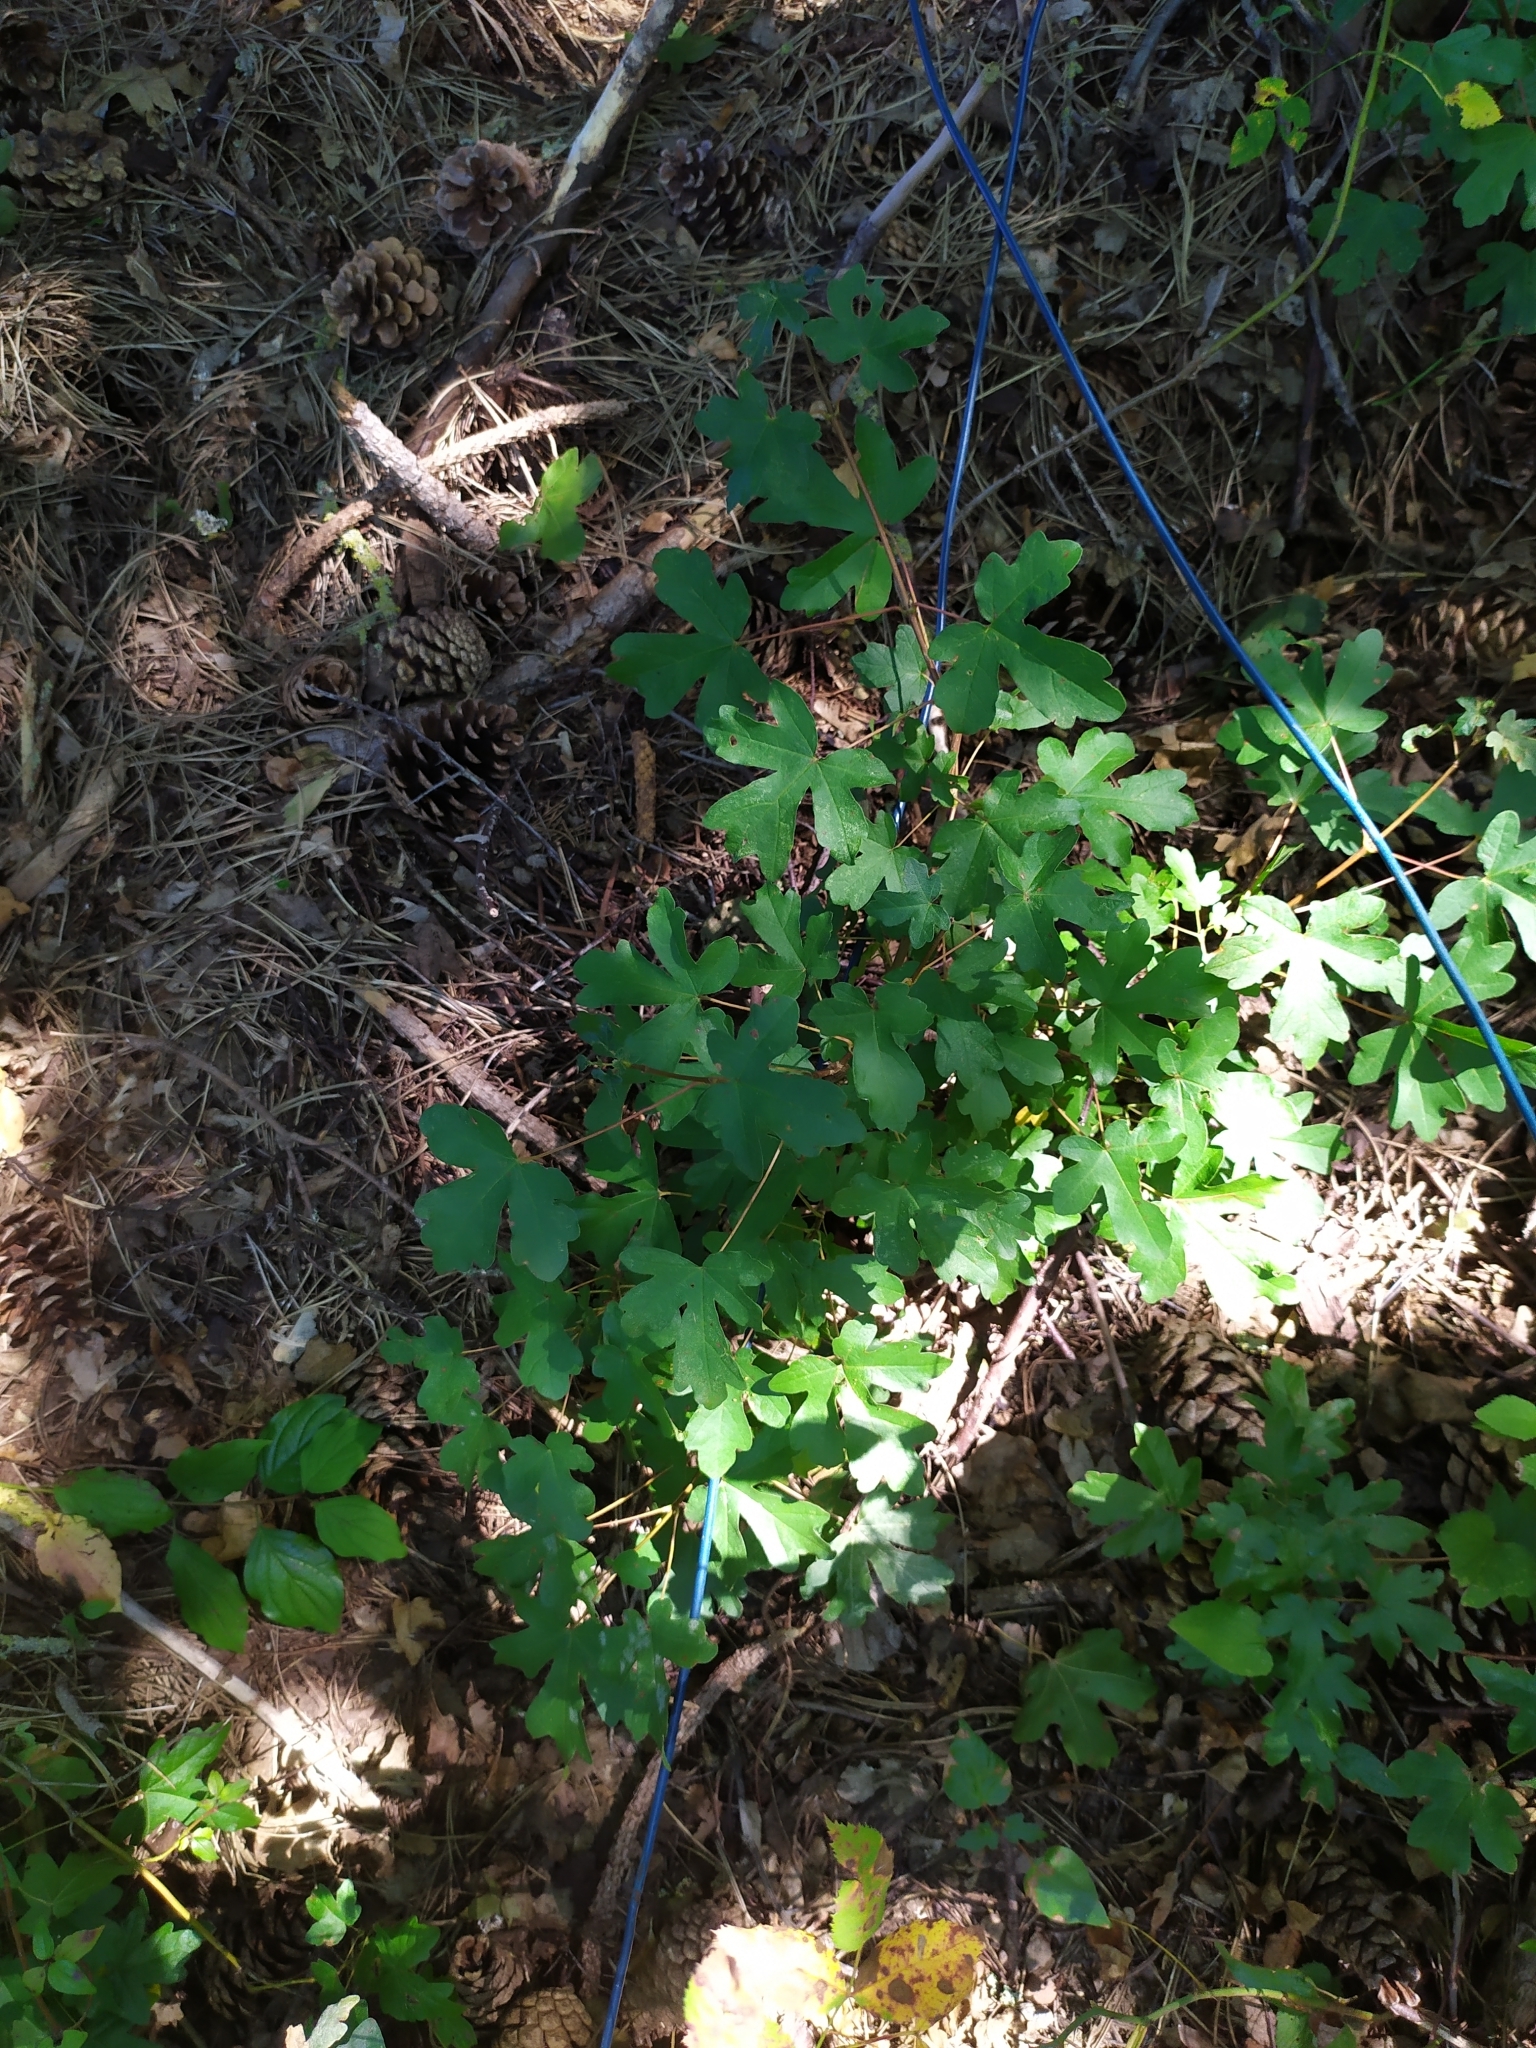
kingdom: Plantae
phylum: Tracheophyta
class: Magnoliopsida
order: Sapindales
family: Sapindaceae
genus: Acer
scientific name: Acer campestre
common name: Field maple
